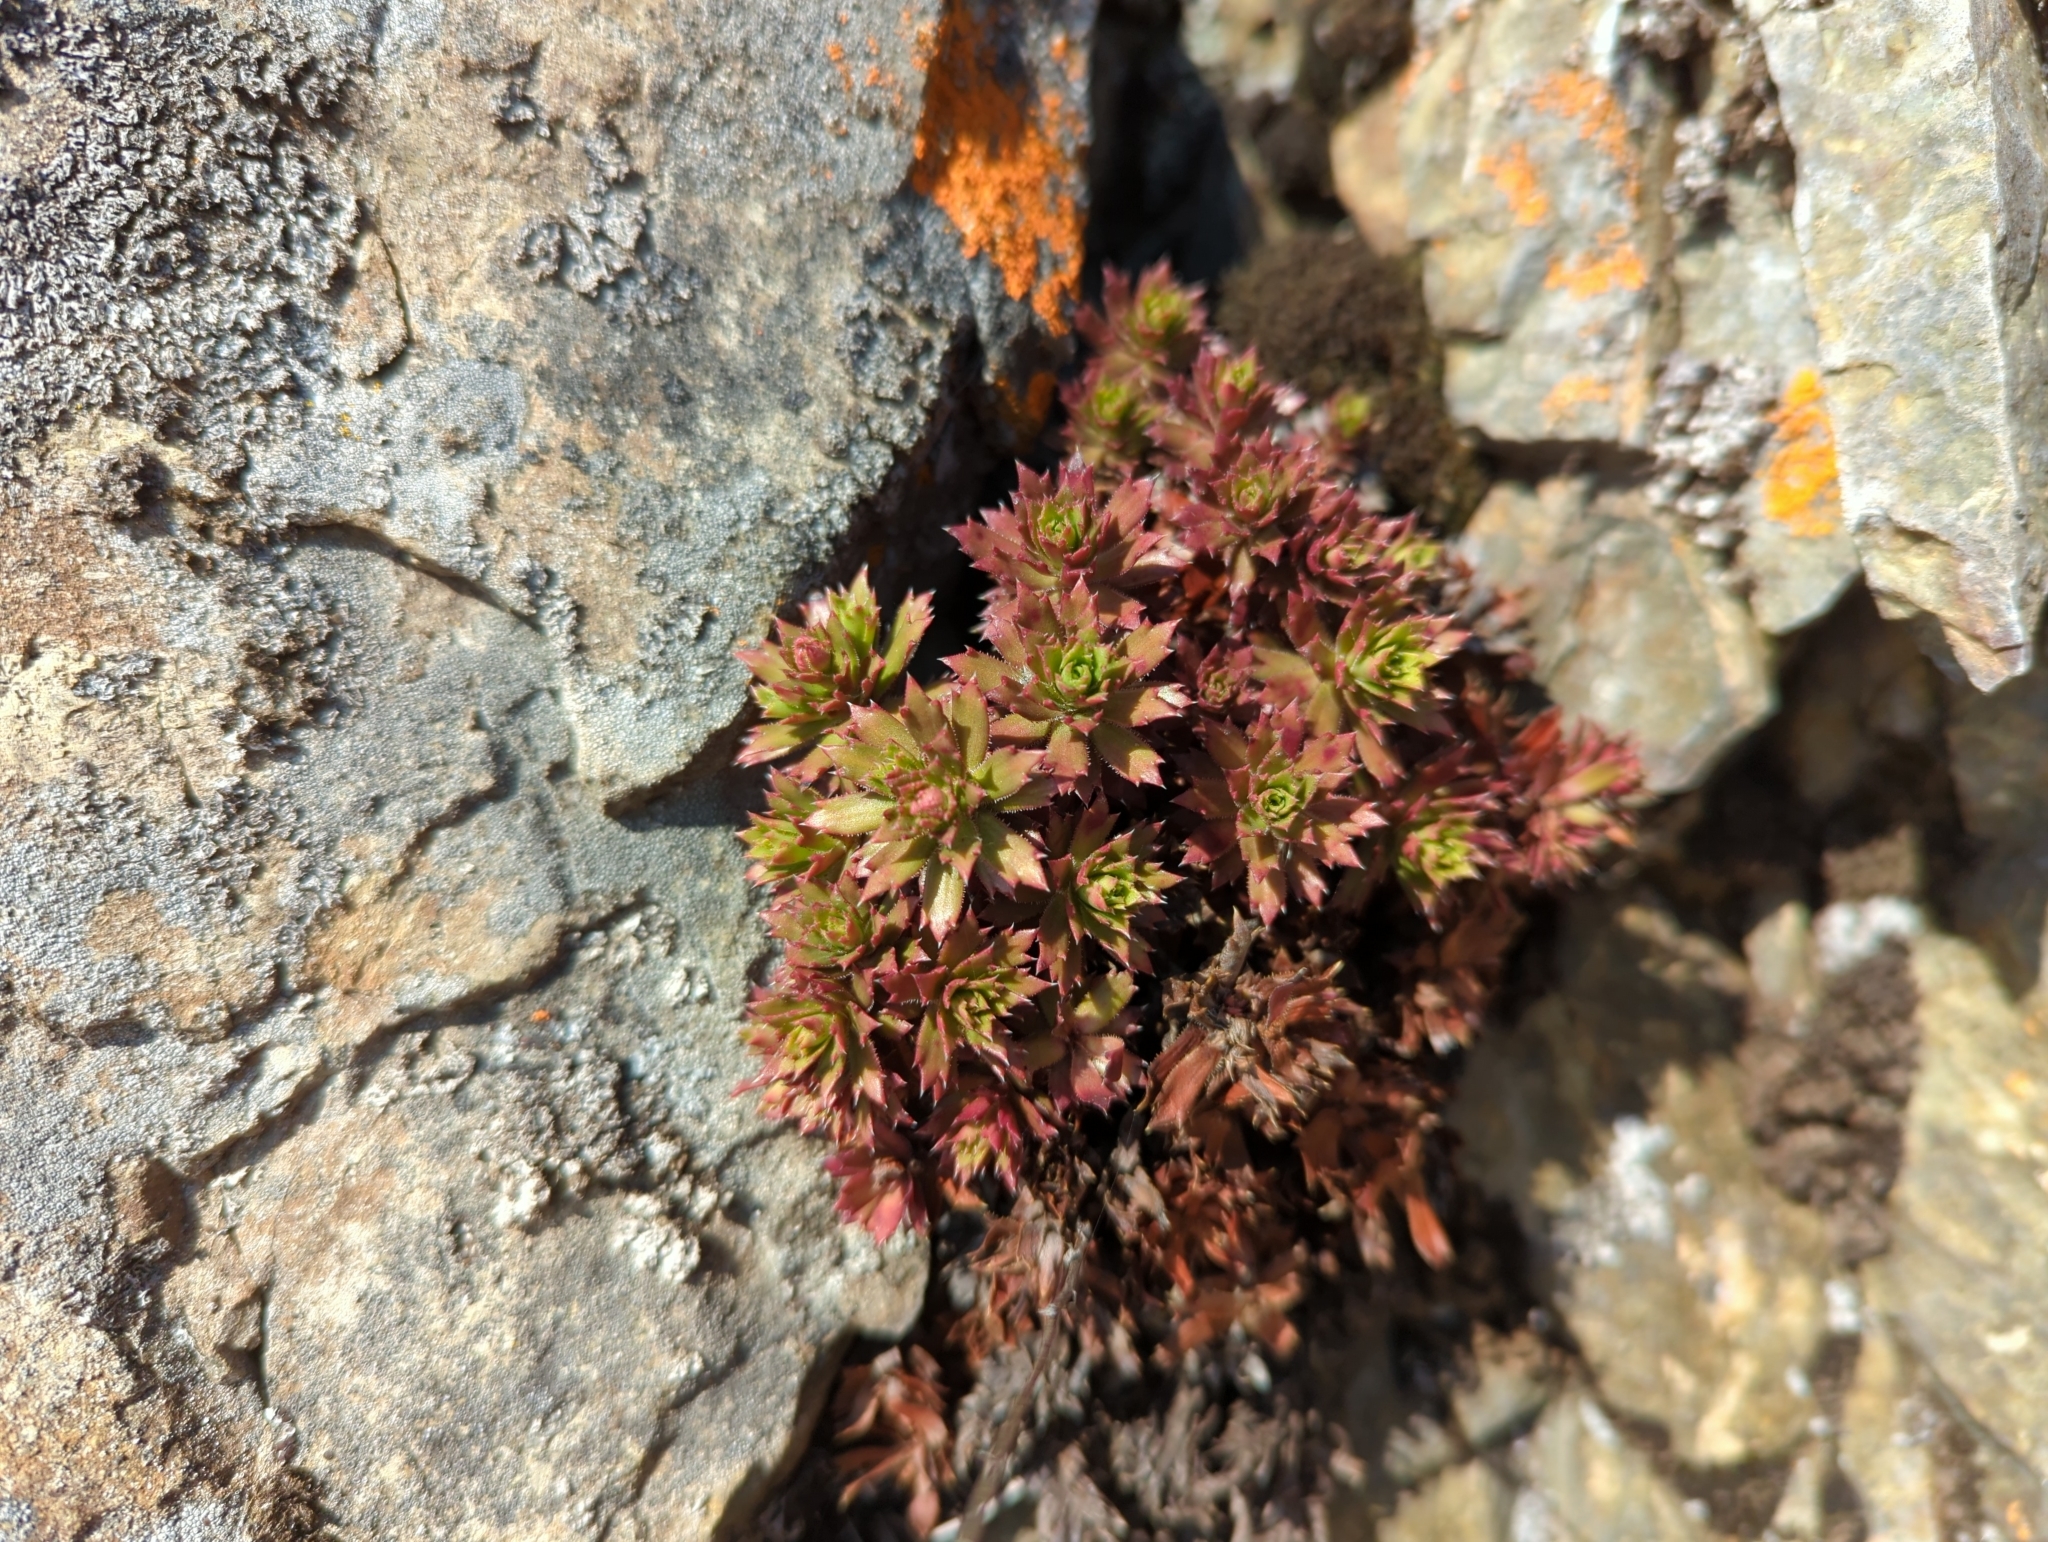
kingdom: Plantae
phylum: Tracheophyta
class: Magnoliopsida
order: Saxifragales
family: Saxifragaceae
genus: Saxifraga
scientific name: Saxifraga tricuspidata
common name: Prickly saxifrage
